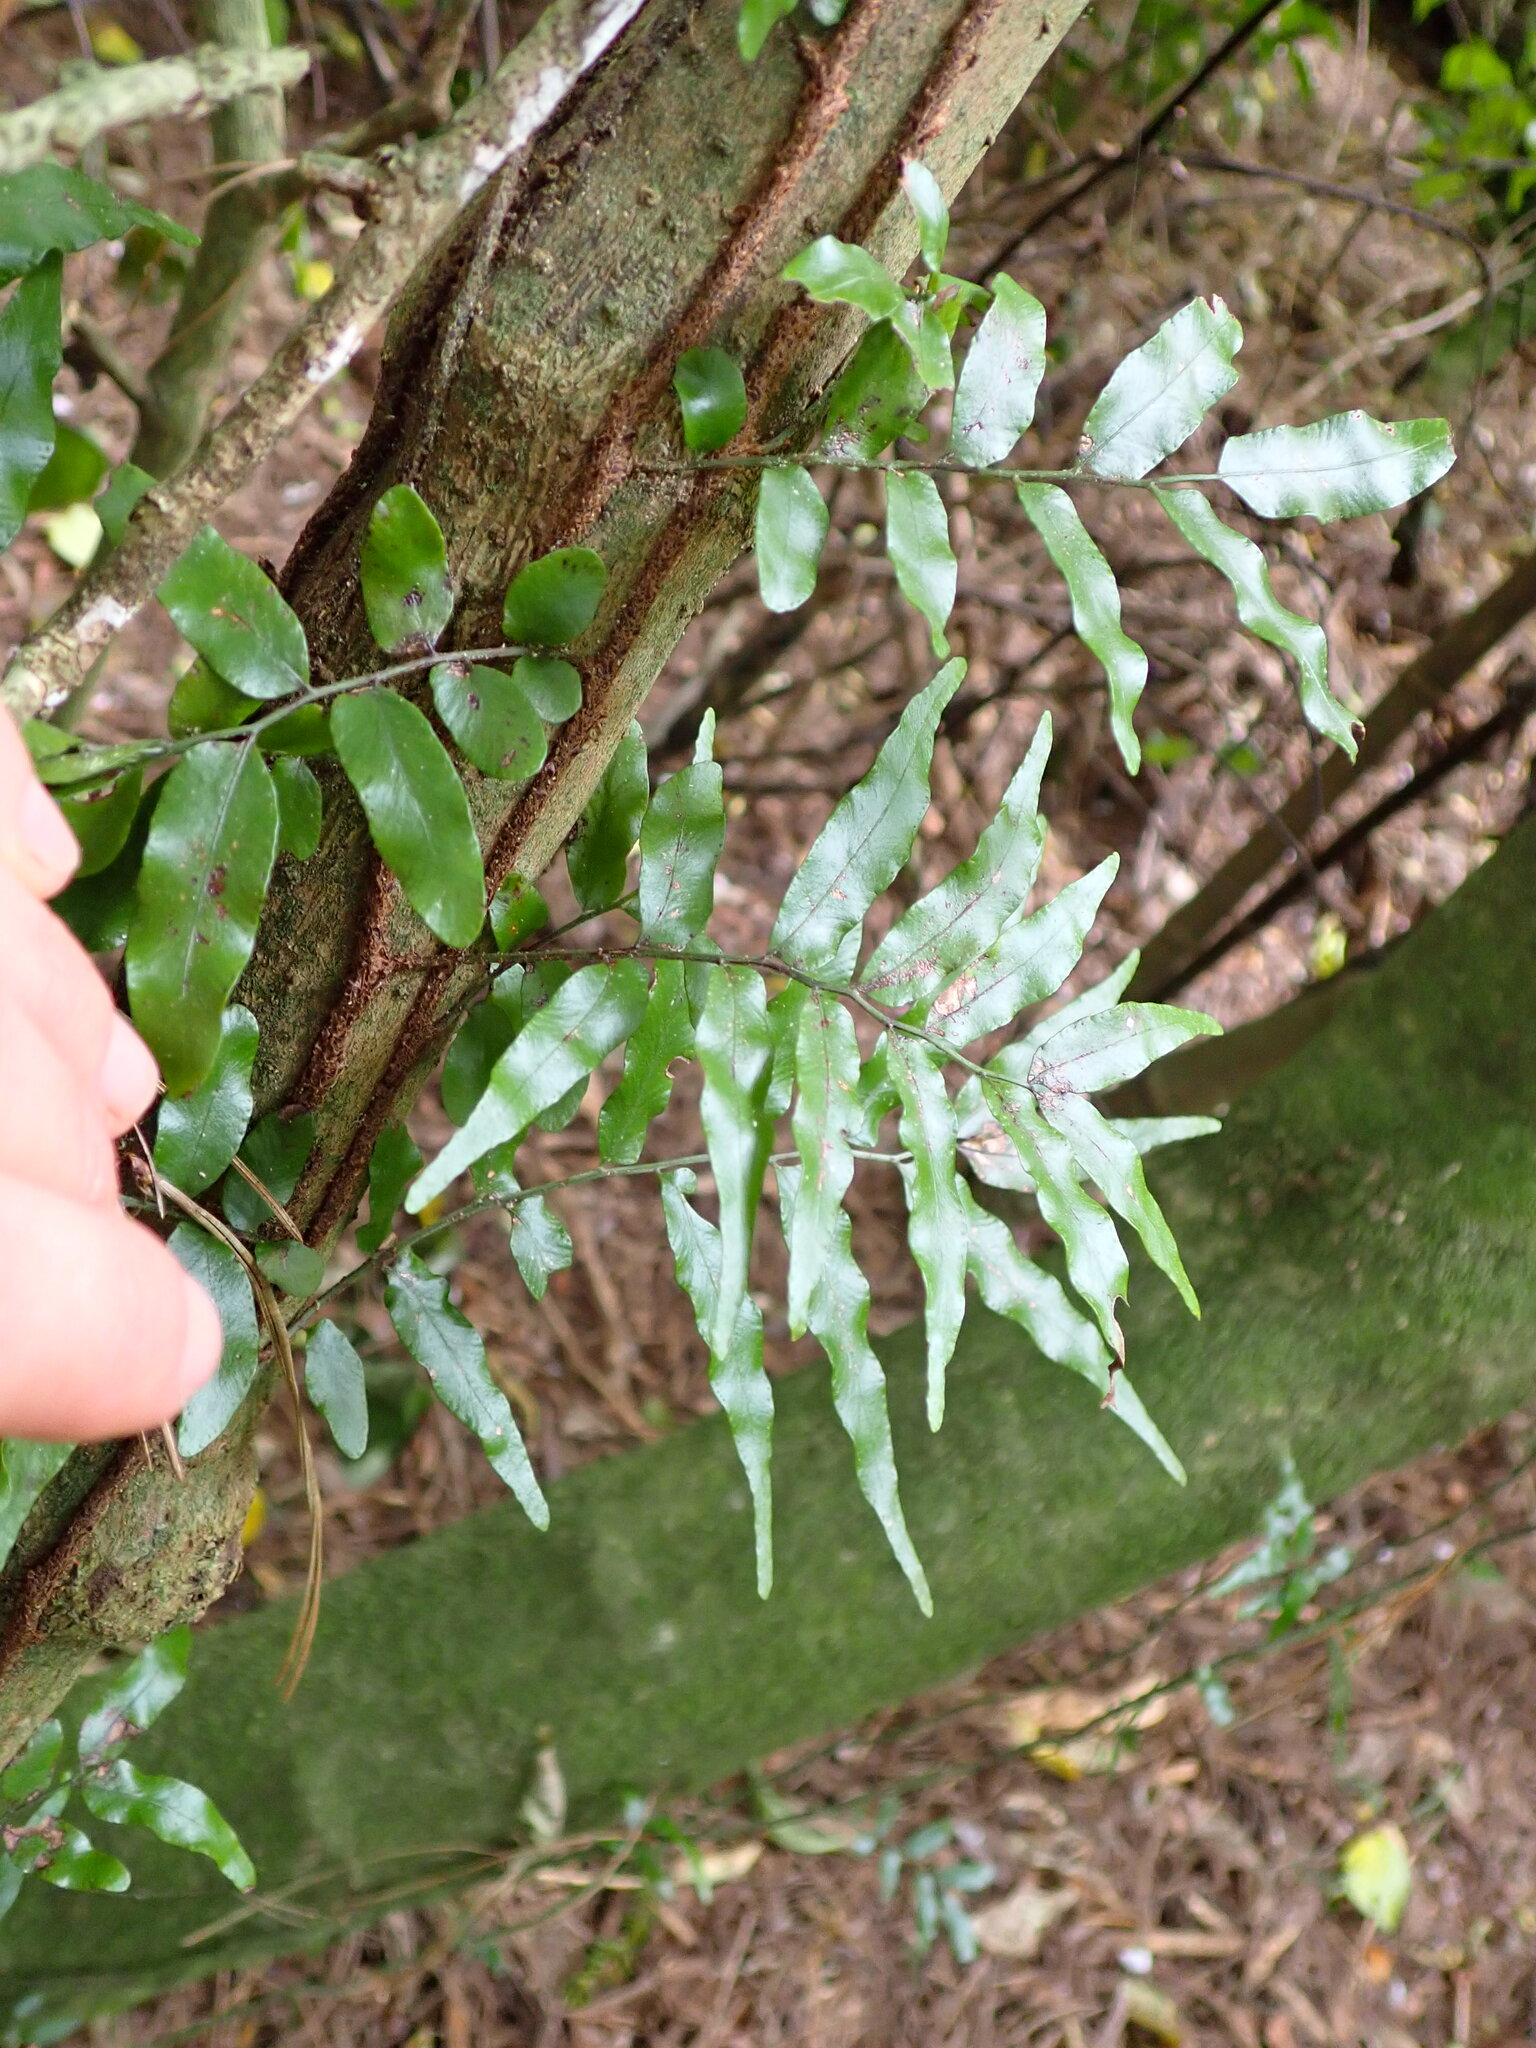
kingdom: Plantae
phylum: Tracheophyta
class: Polypodiopsida
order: Polypodiales
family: Tectariaceae
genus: Arthropteris
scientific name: Arthropteris tenella
